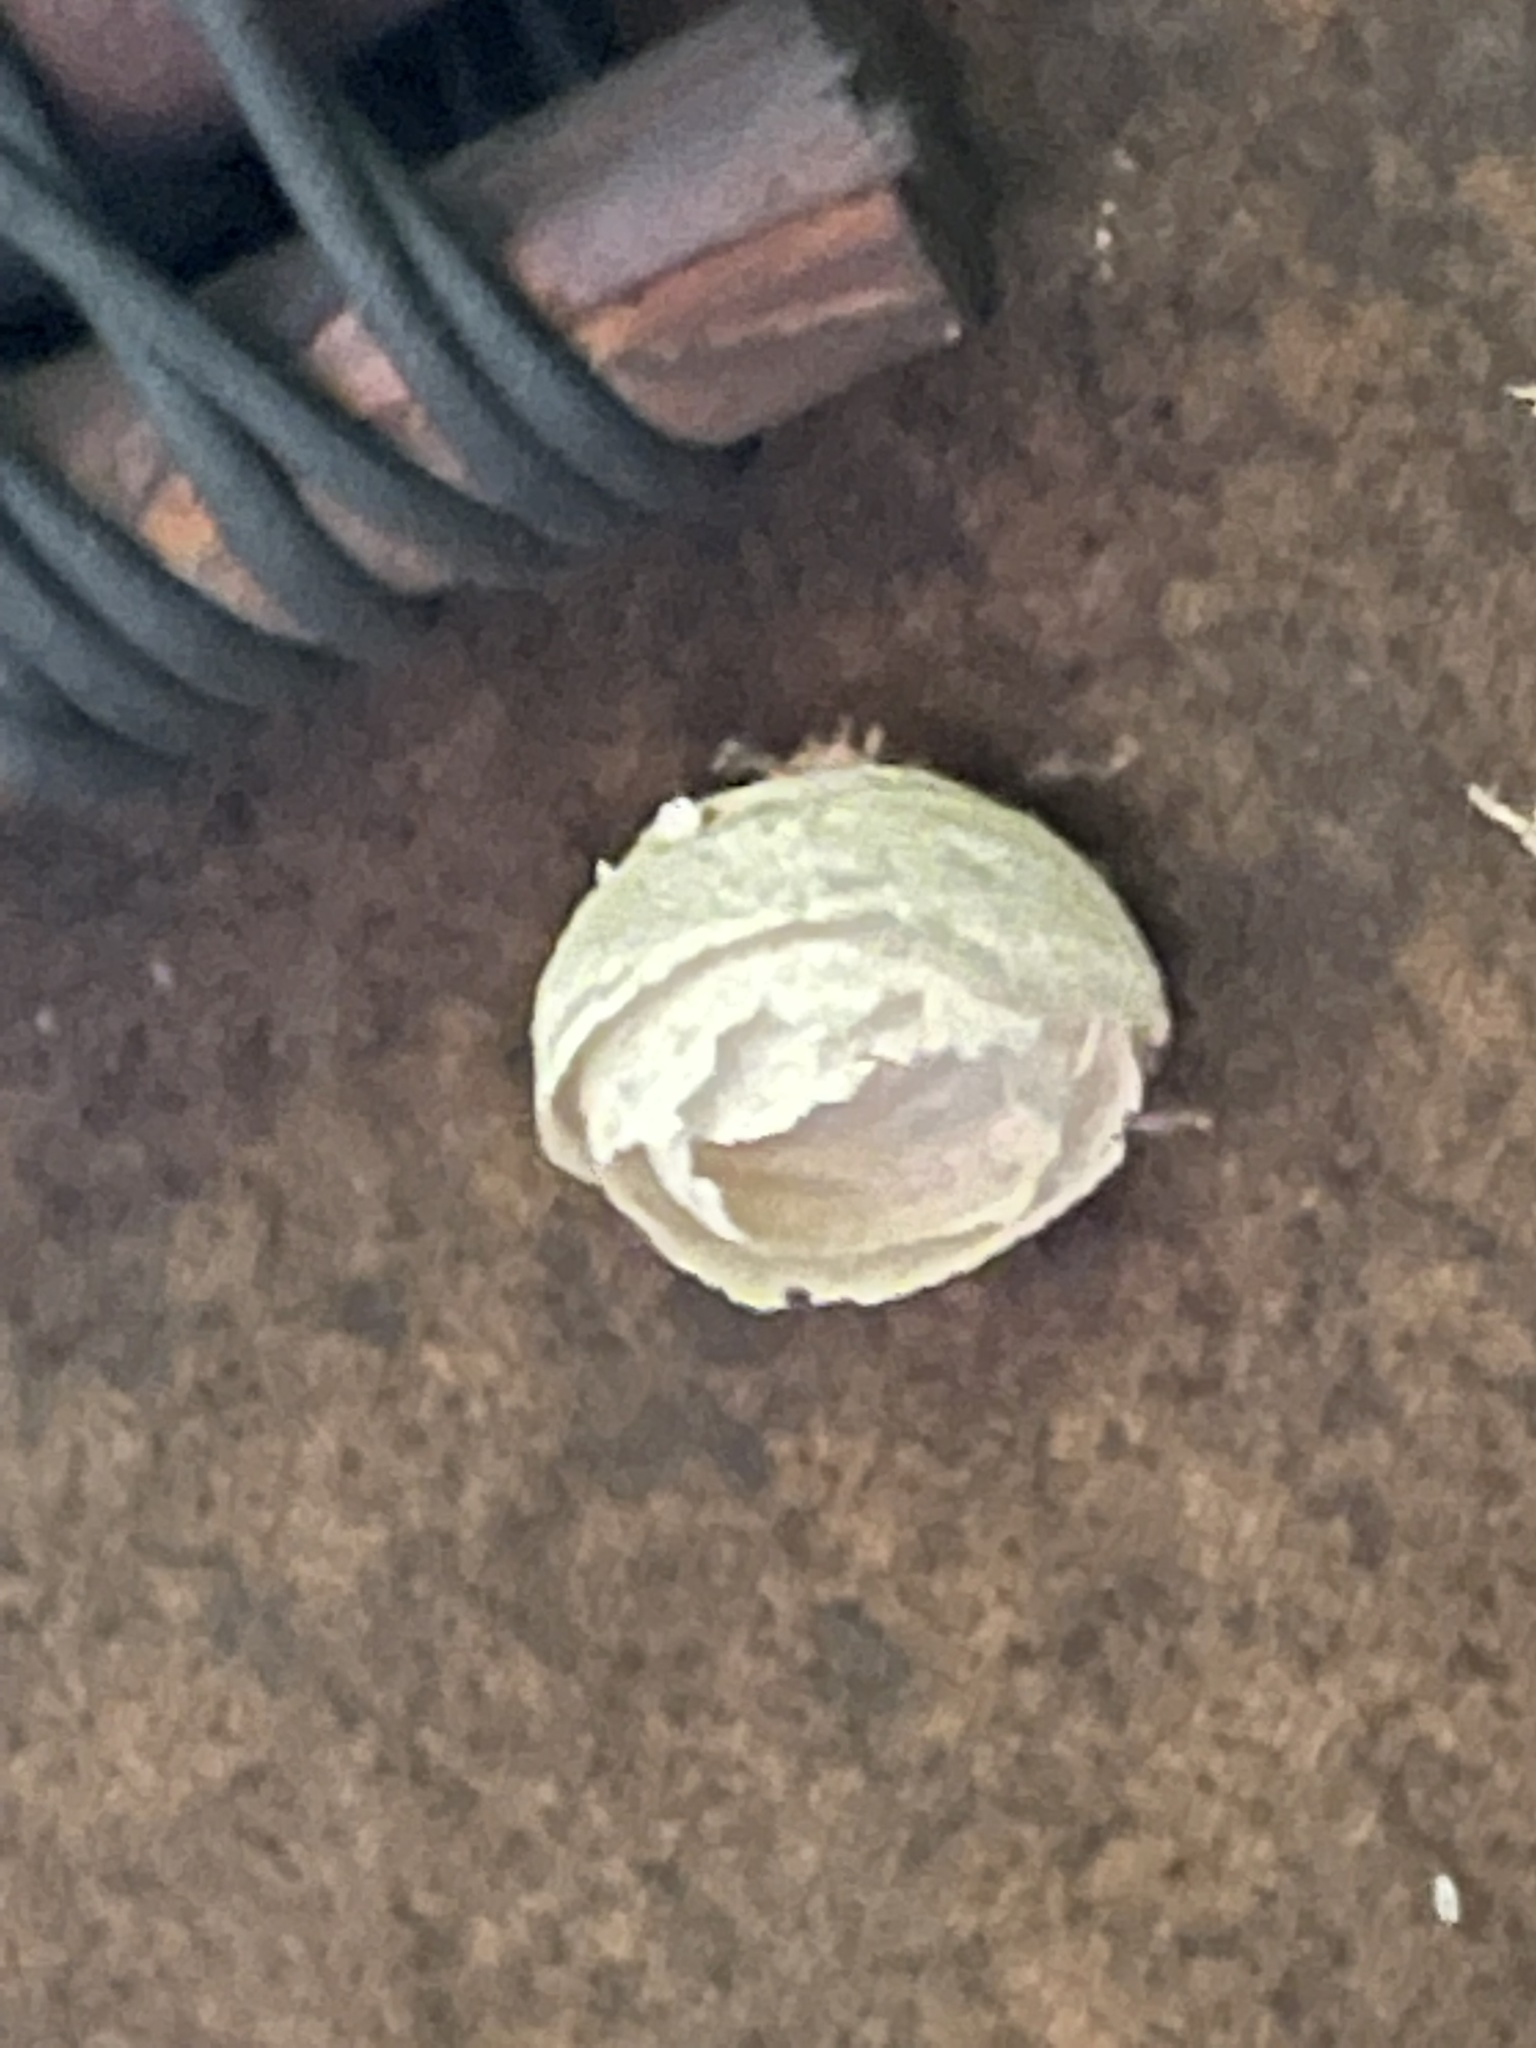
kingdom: Animalia
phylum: Arthropoda
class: Insecta
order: Hymenoptera
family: Vespidae
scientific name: Vespidae
